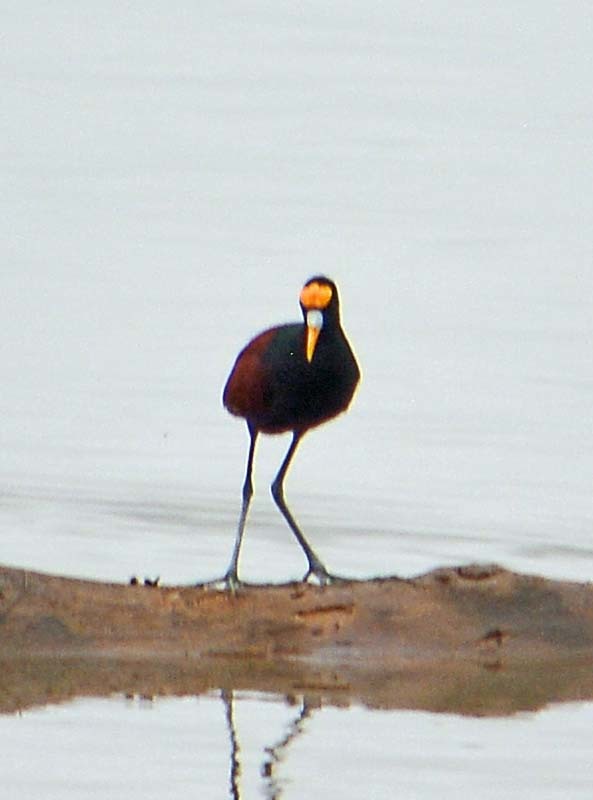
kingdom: Animalia
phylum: Chordata
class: Aves
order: Charadriiformes
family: Jacanidae
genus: Jacana
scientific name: Jacana spinosa
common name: Northern jacana
